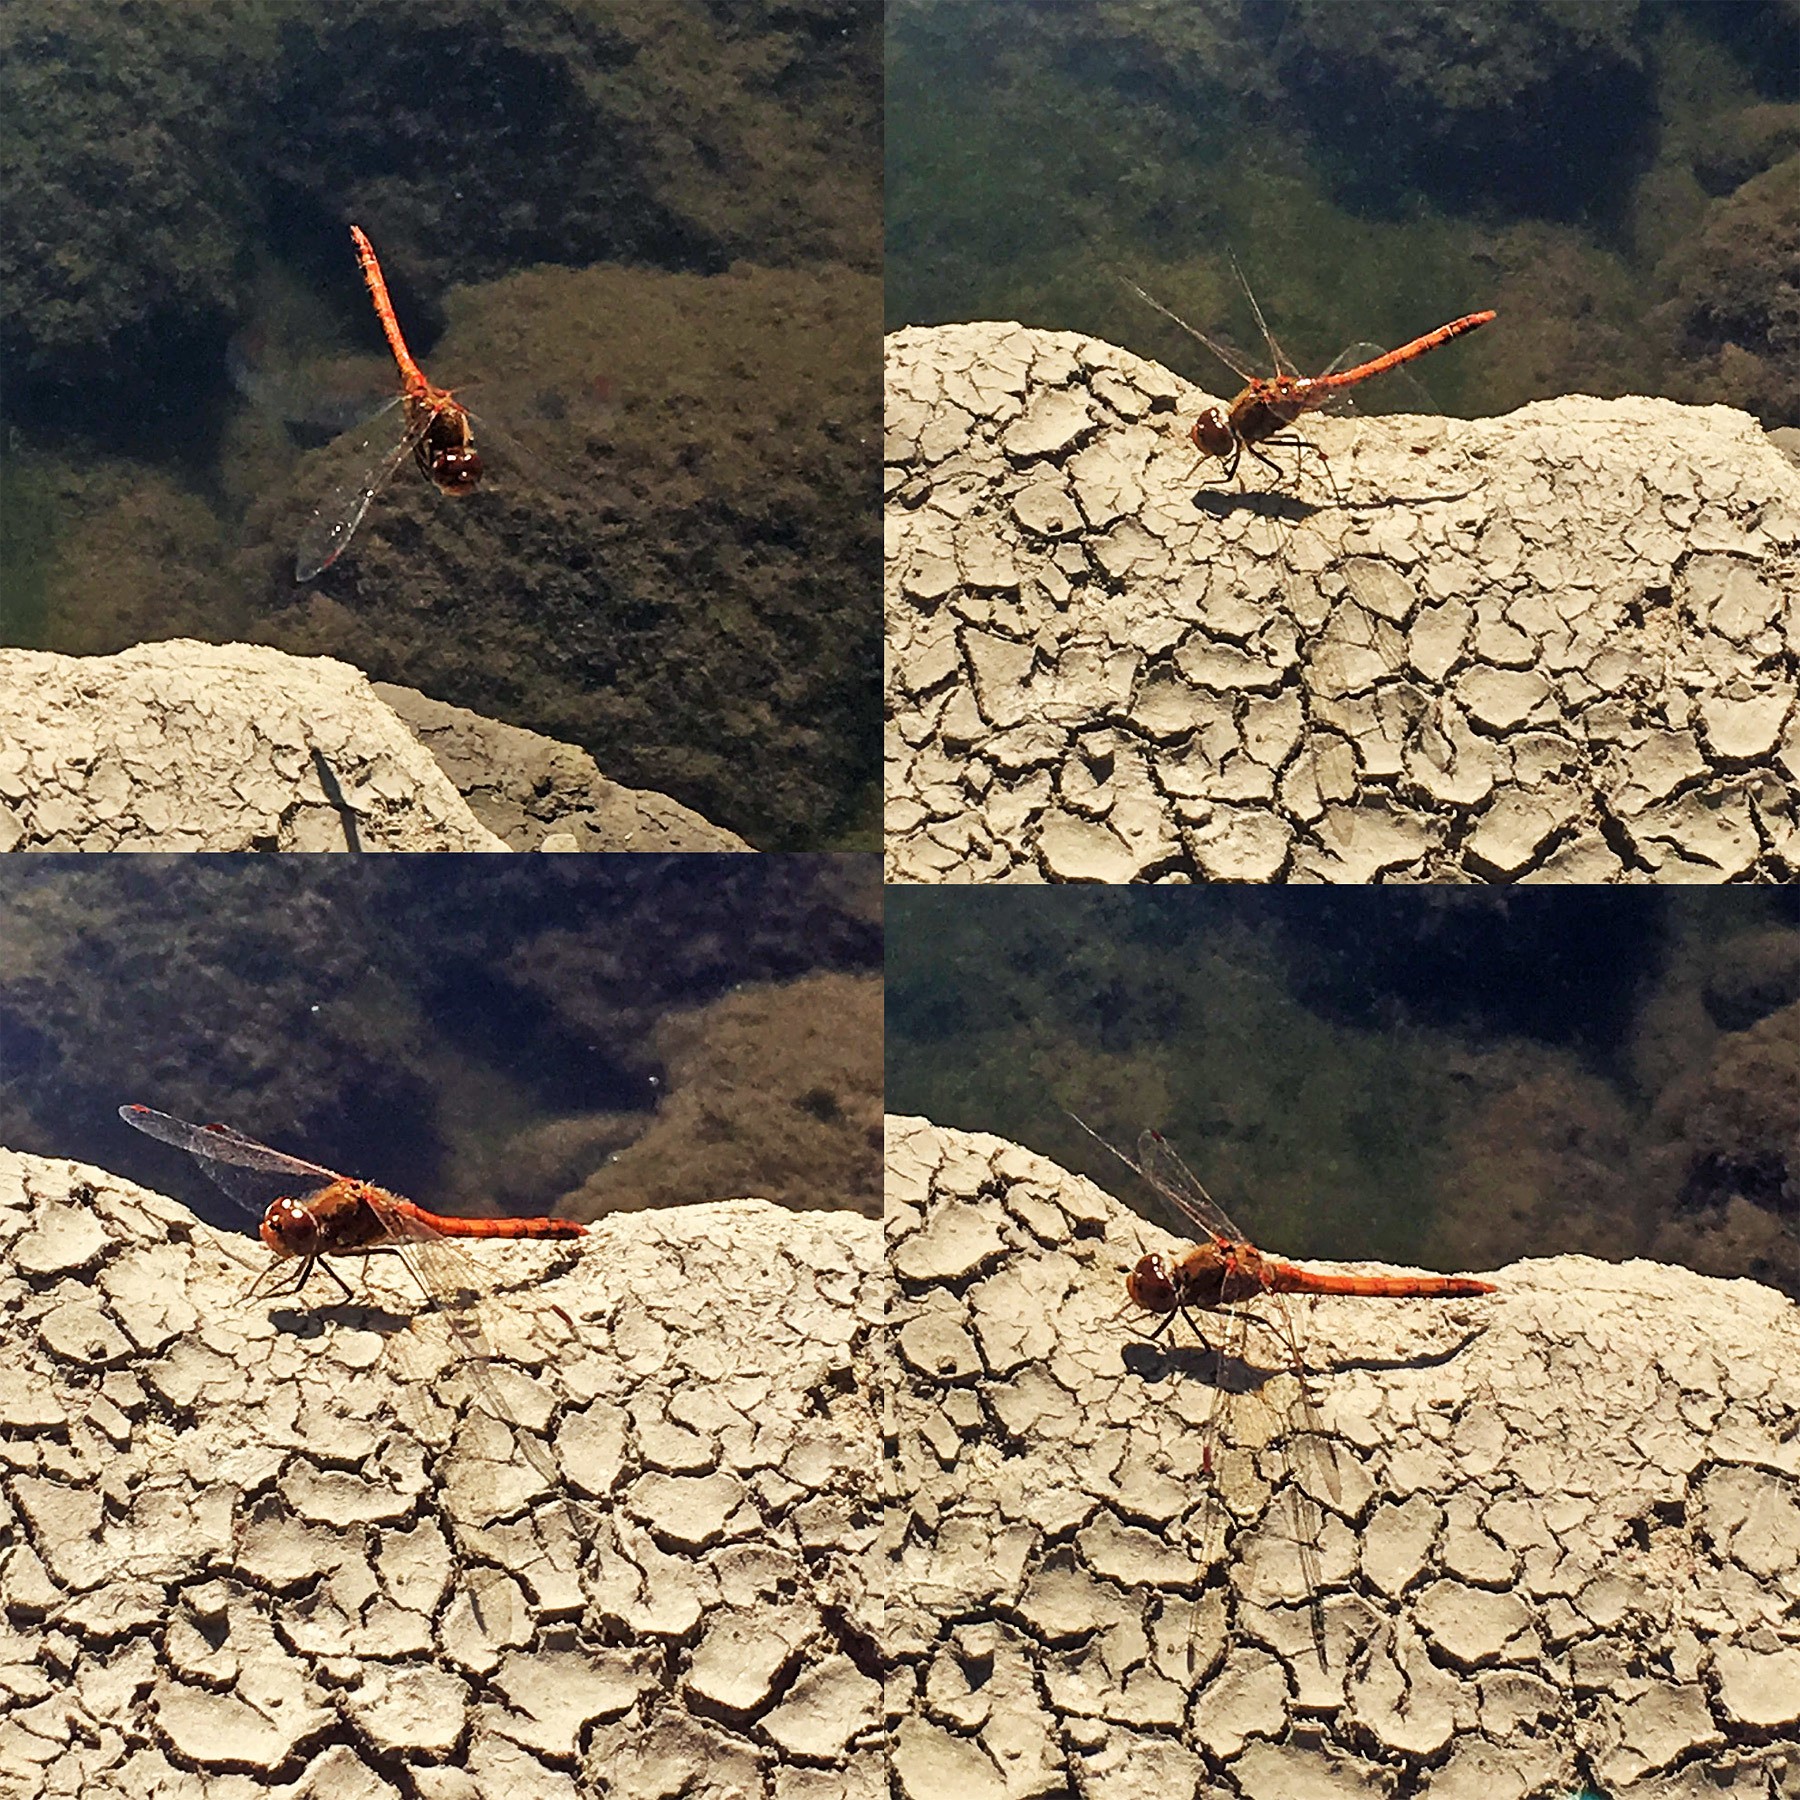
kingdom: Animalia
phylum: Arthropoda
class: Insecta
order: Odonata
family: Libellulidae
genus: Sympetrum
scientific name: Sympetrum striolatum
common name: Common darter
